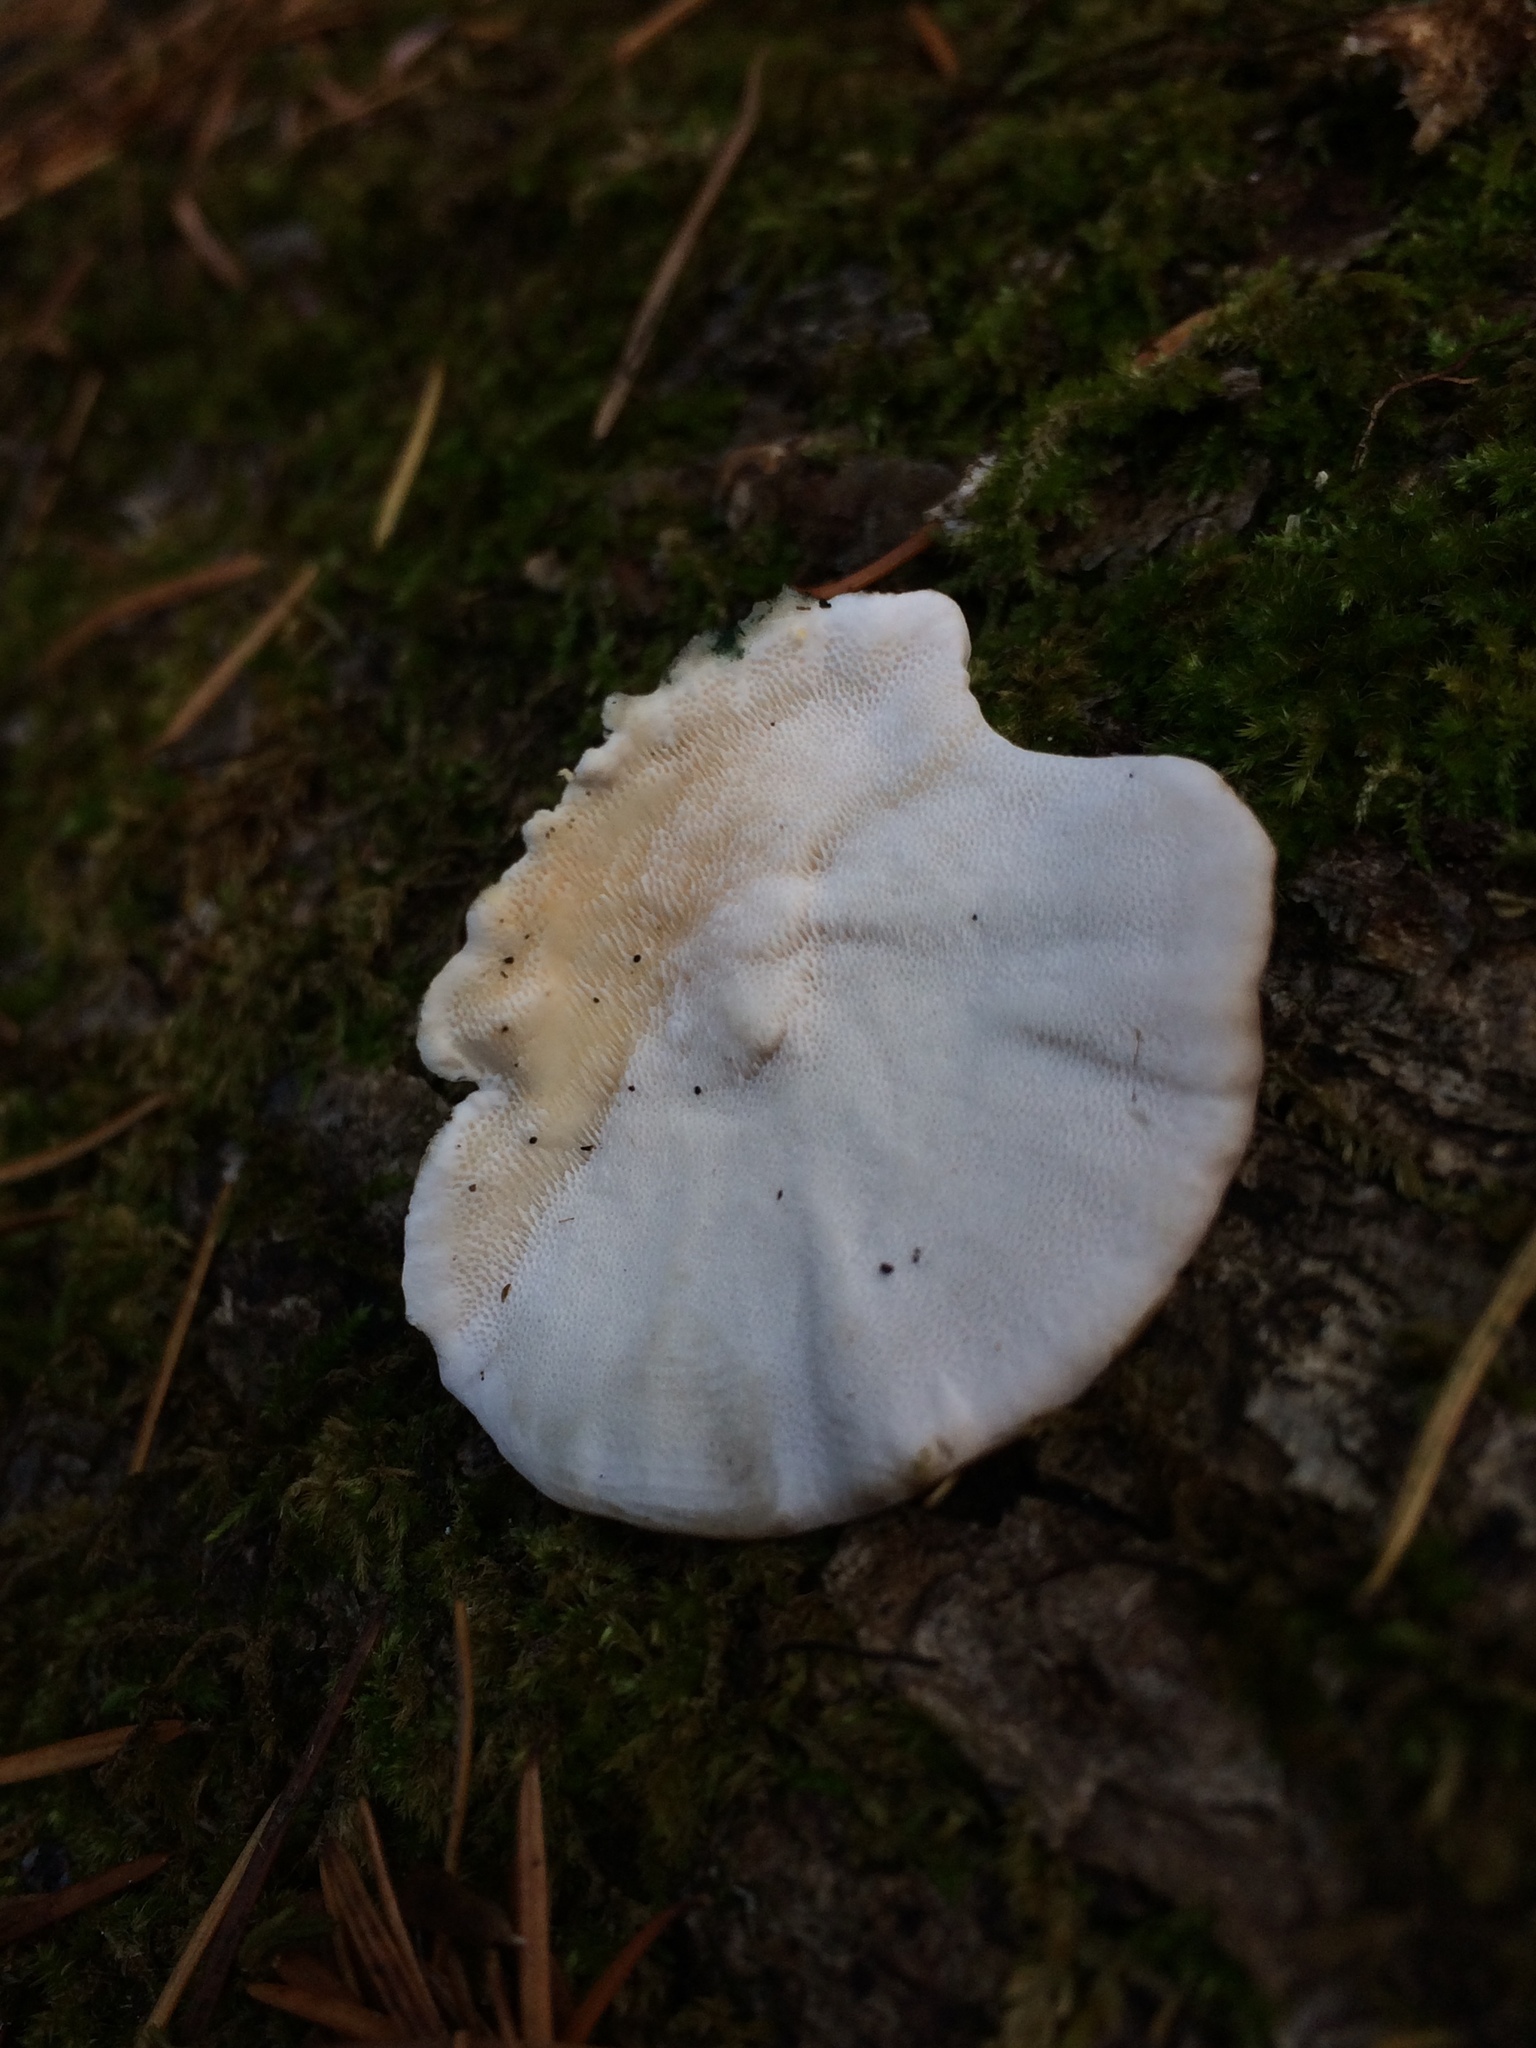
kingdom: Fungi
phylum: Basidiomycota
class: Agaricomycetes
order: Polyporales
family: Polyporaceae
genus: Trametes
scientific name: Trametes versicolor
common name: Turkeytail
